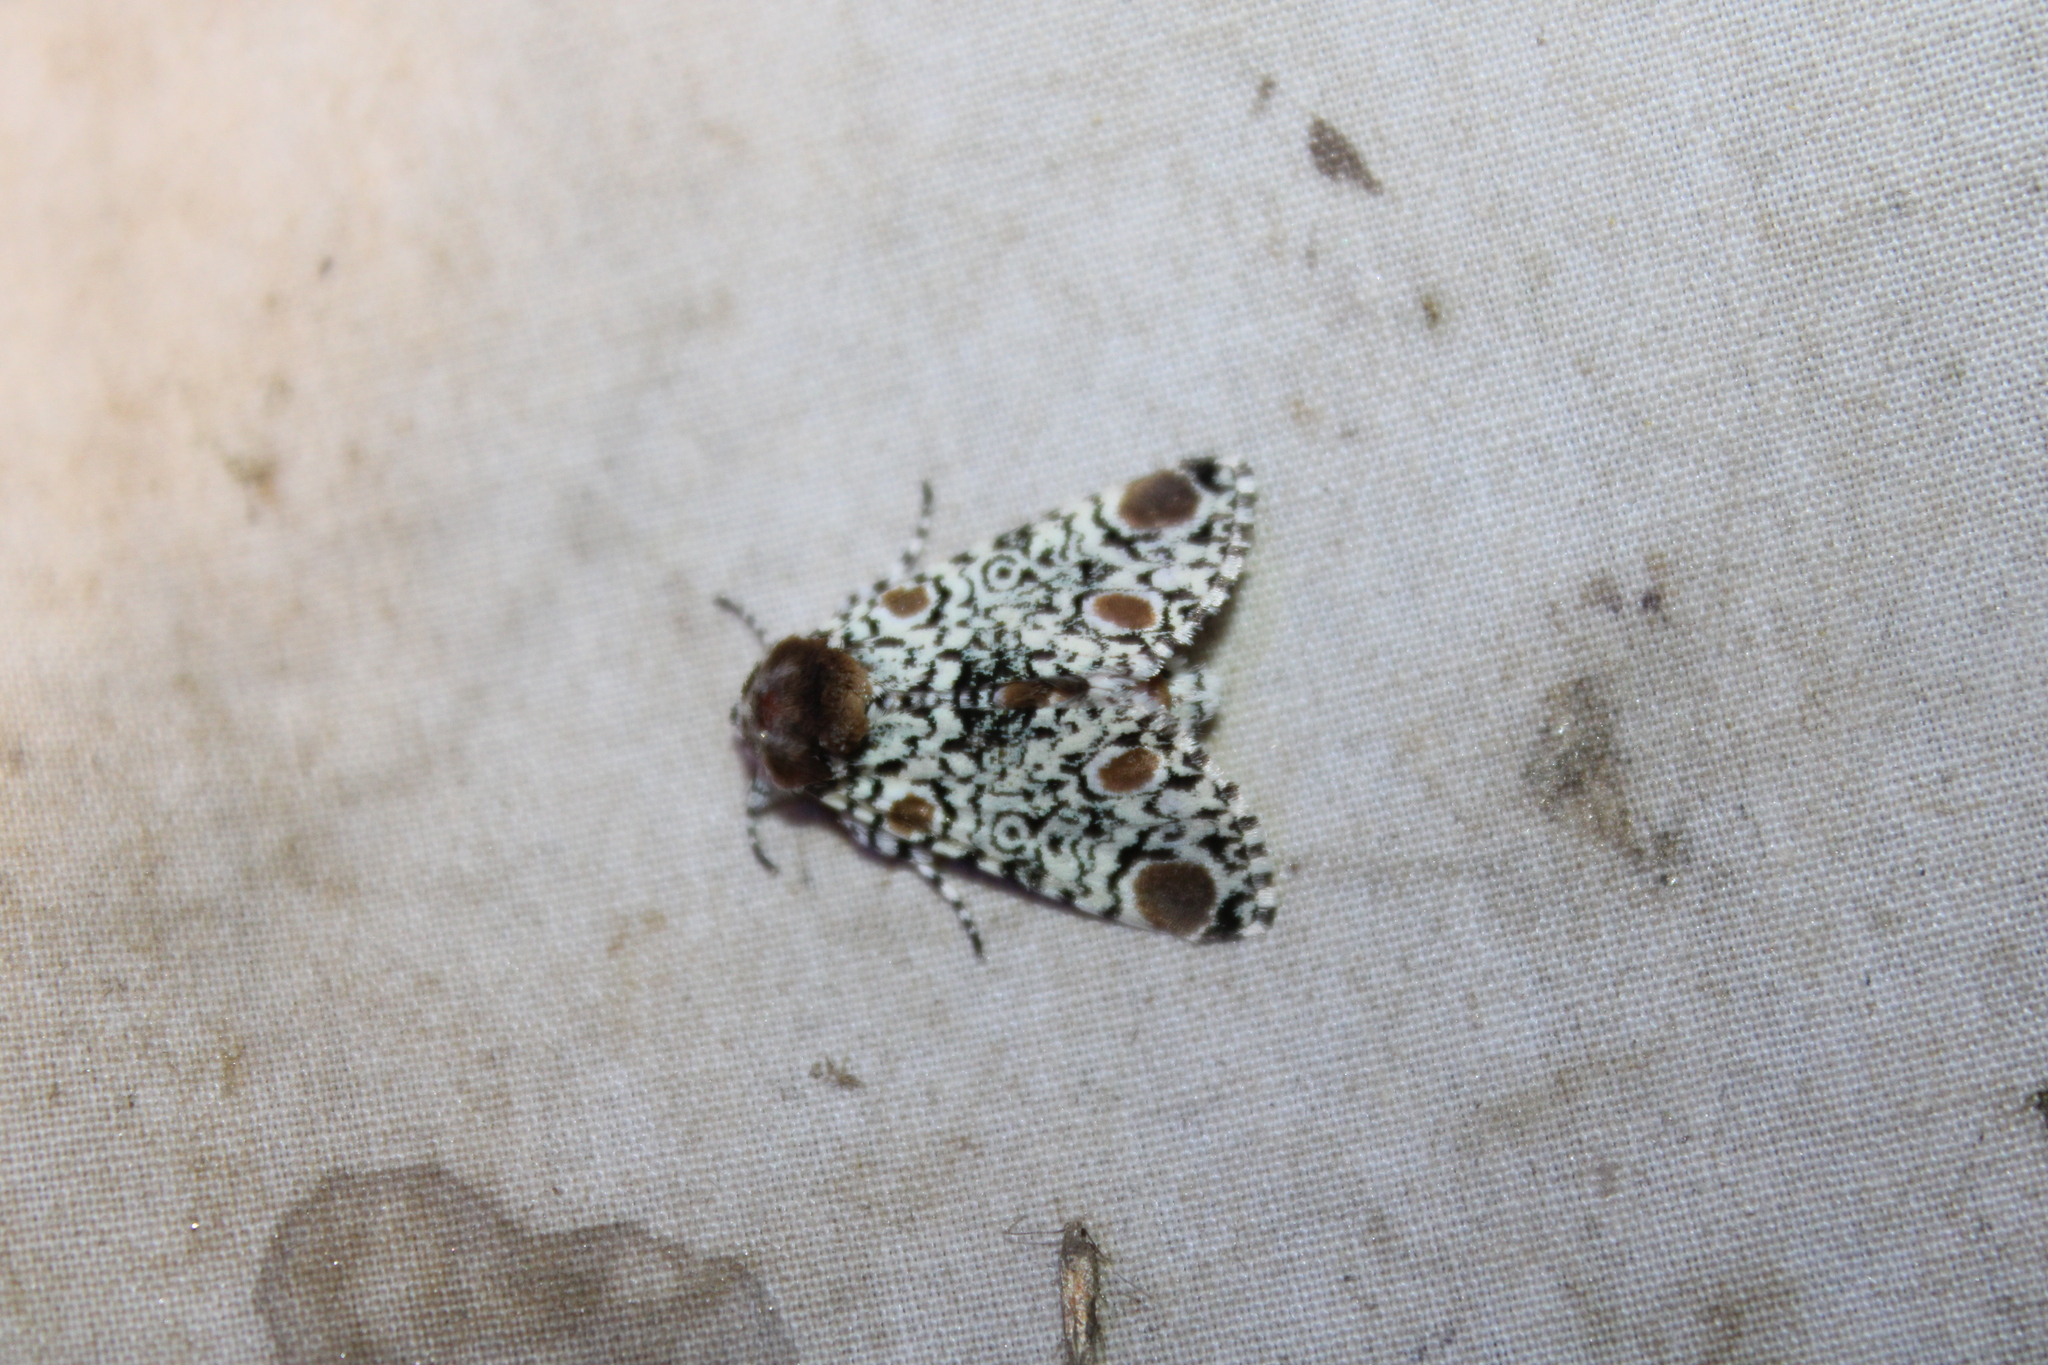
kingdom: Animalia
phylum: Arthropoda
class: Insecta
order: Lepidoptera
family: Noctuidae
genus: Harrisimemna
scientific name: Harrisimemna trisignata
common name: Harris threespot
